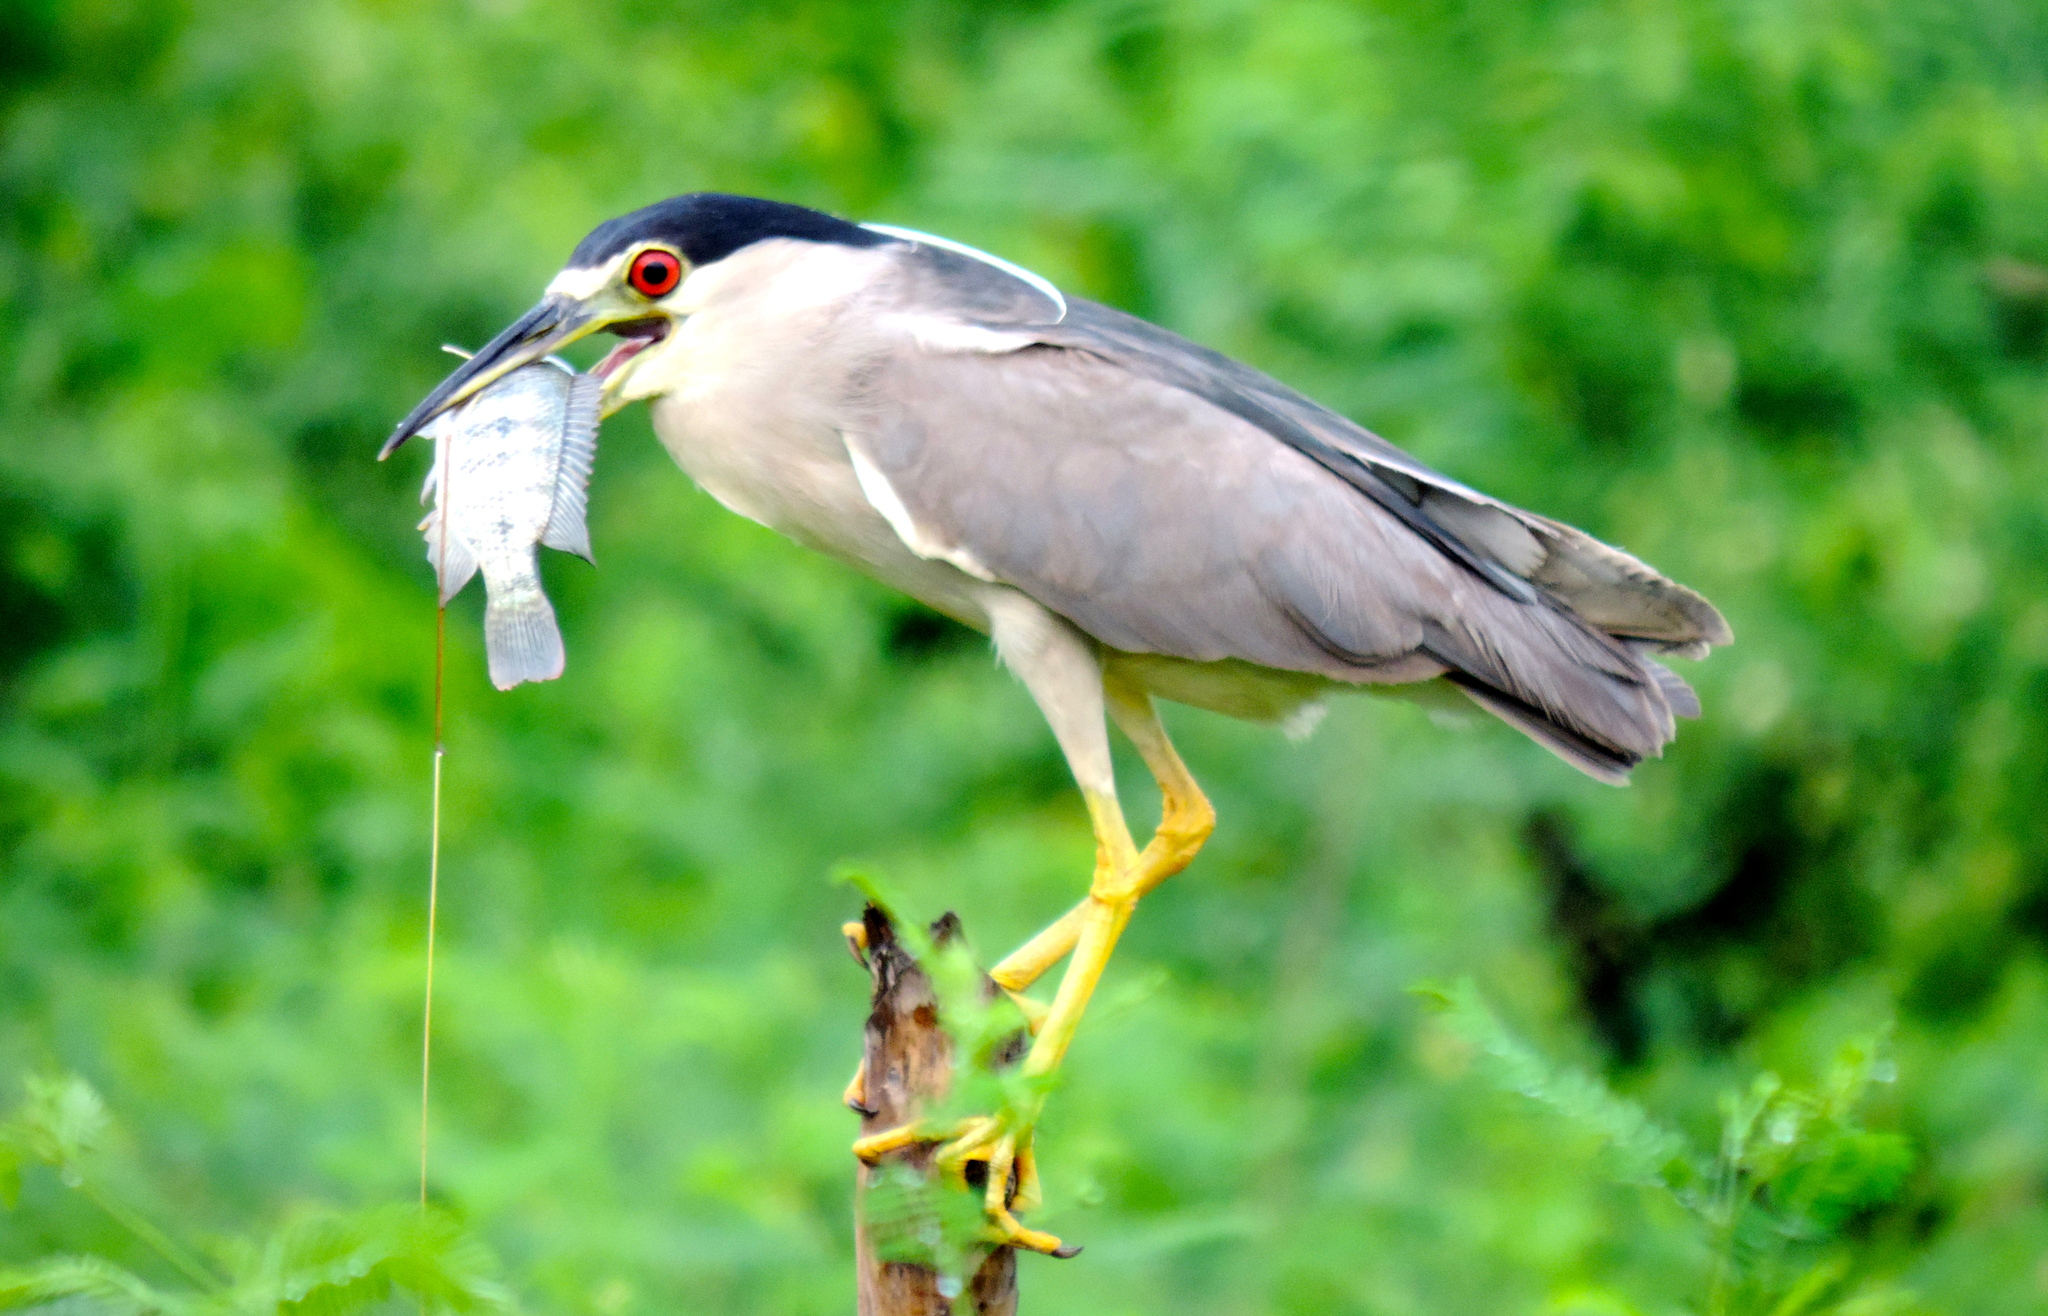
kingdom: Animalia
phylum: Chordata
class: Aves
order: Pelecaniformes
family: Ardeidae
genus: Nycticorax
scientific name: Nycticorax nycticorax
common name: Black-crowned night heron
